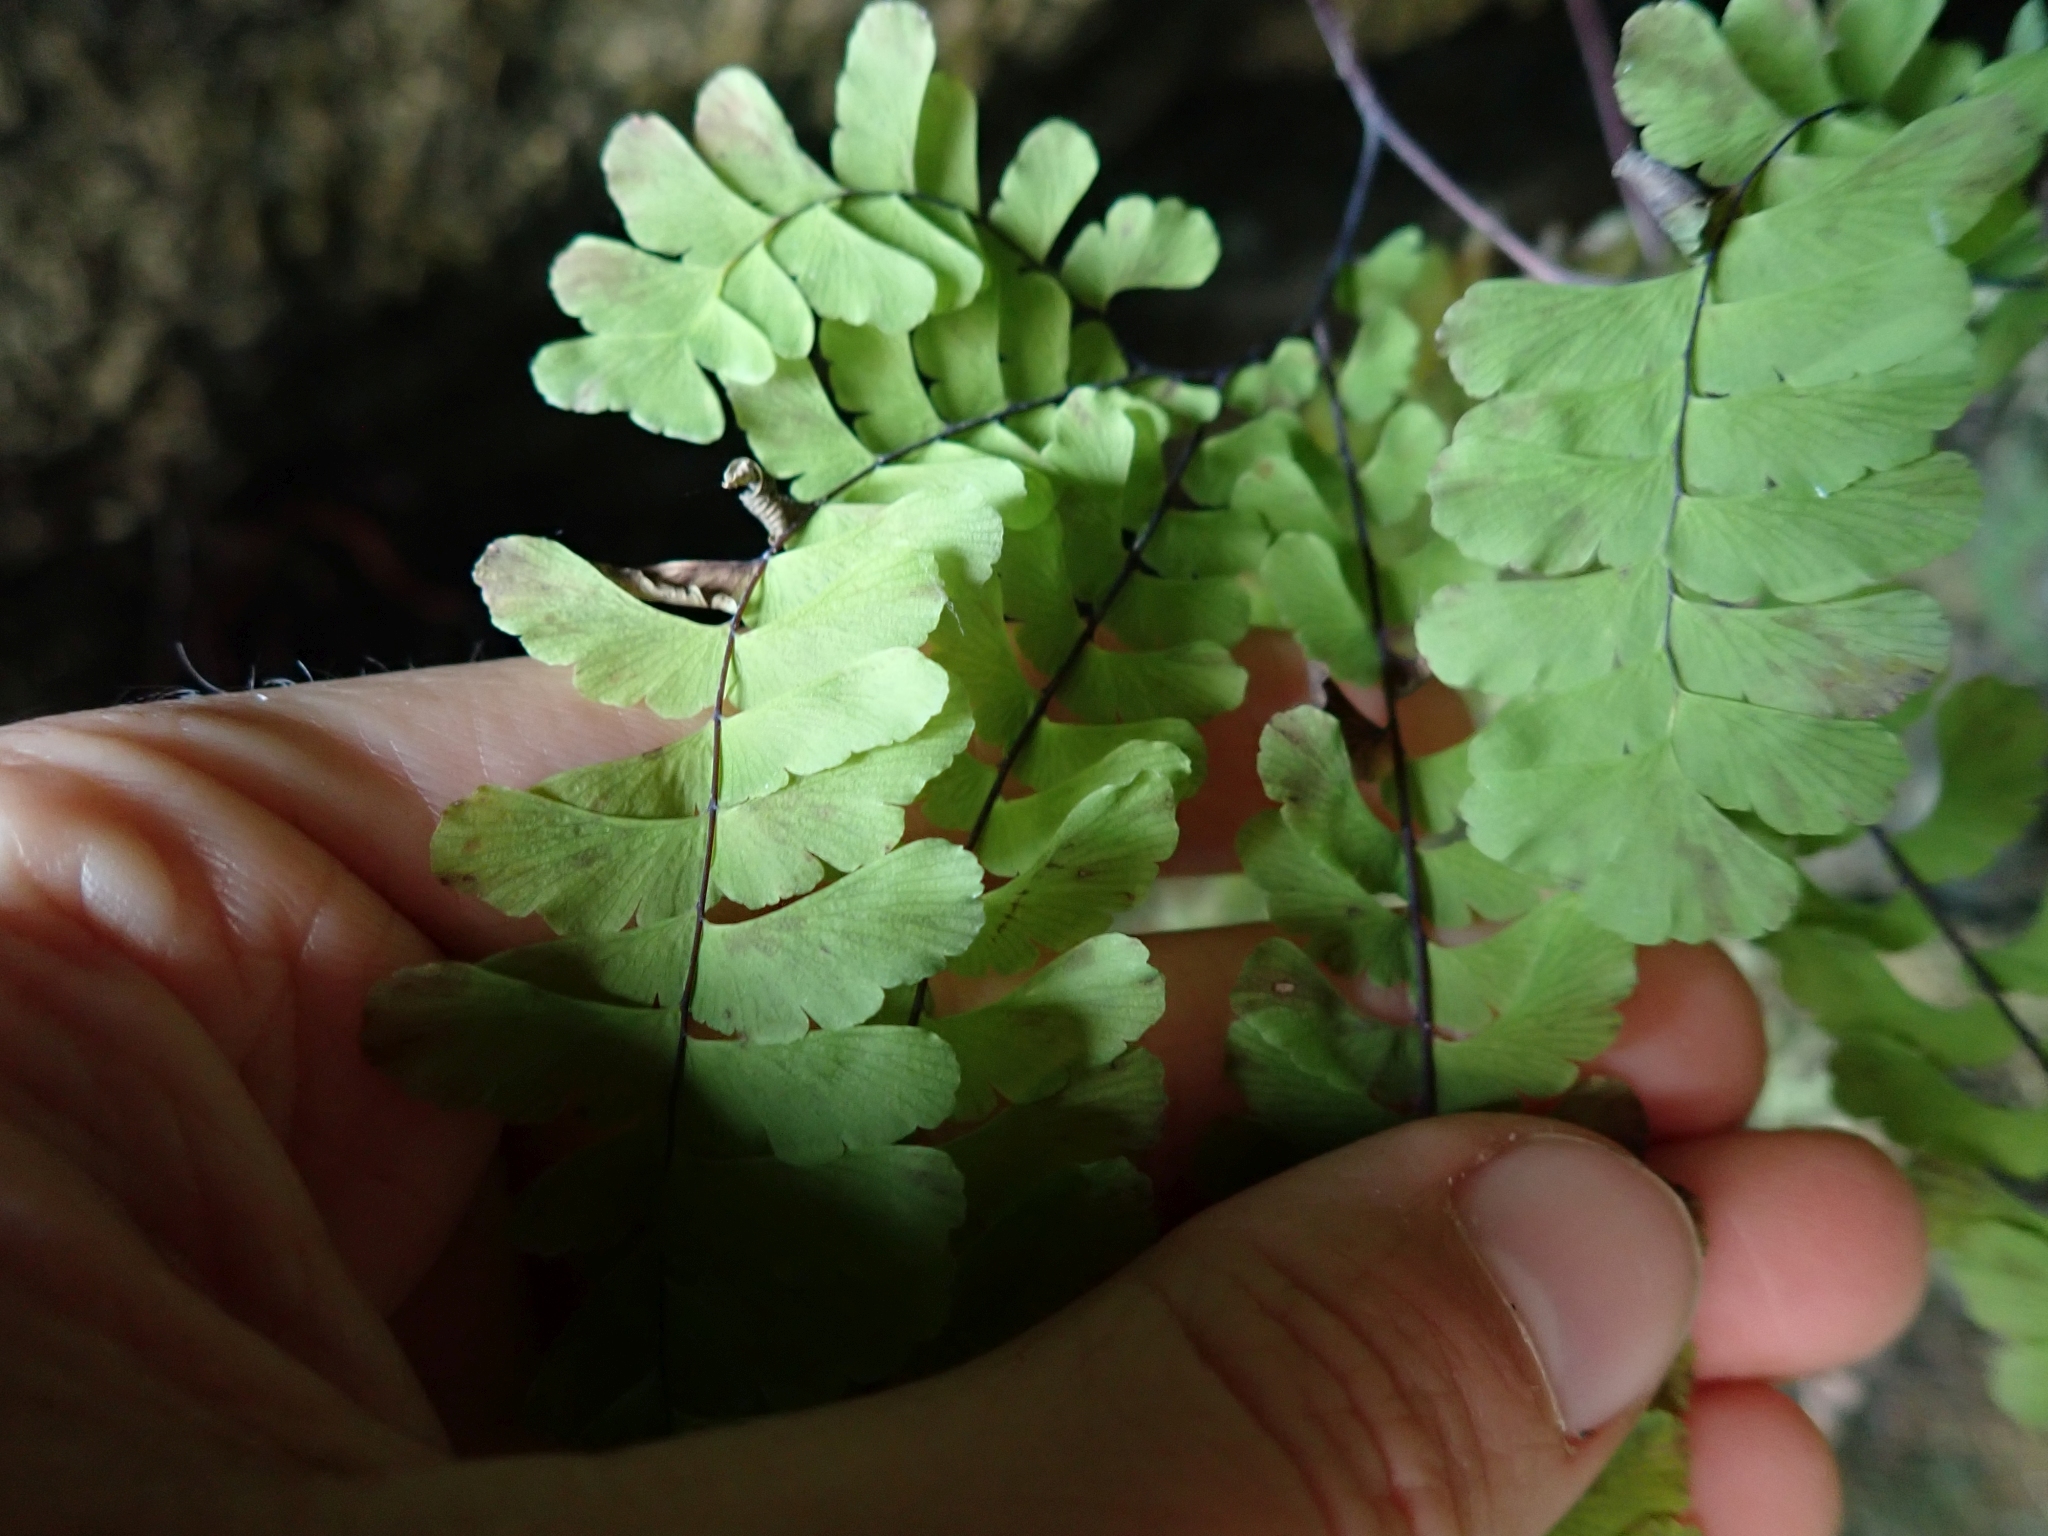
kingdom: Plantae
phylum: Tracheophyta
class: Polypodiopsida
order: Polypodiales
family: Pteridaceae
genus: Adiantum
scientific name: Adiantum aleuticum
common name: Aleutian maidenhair fern
